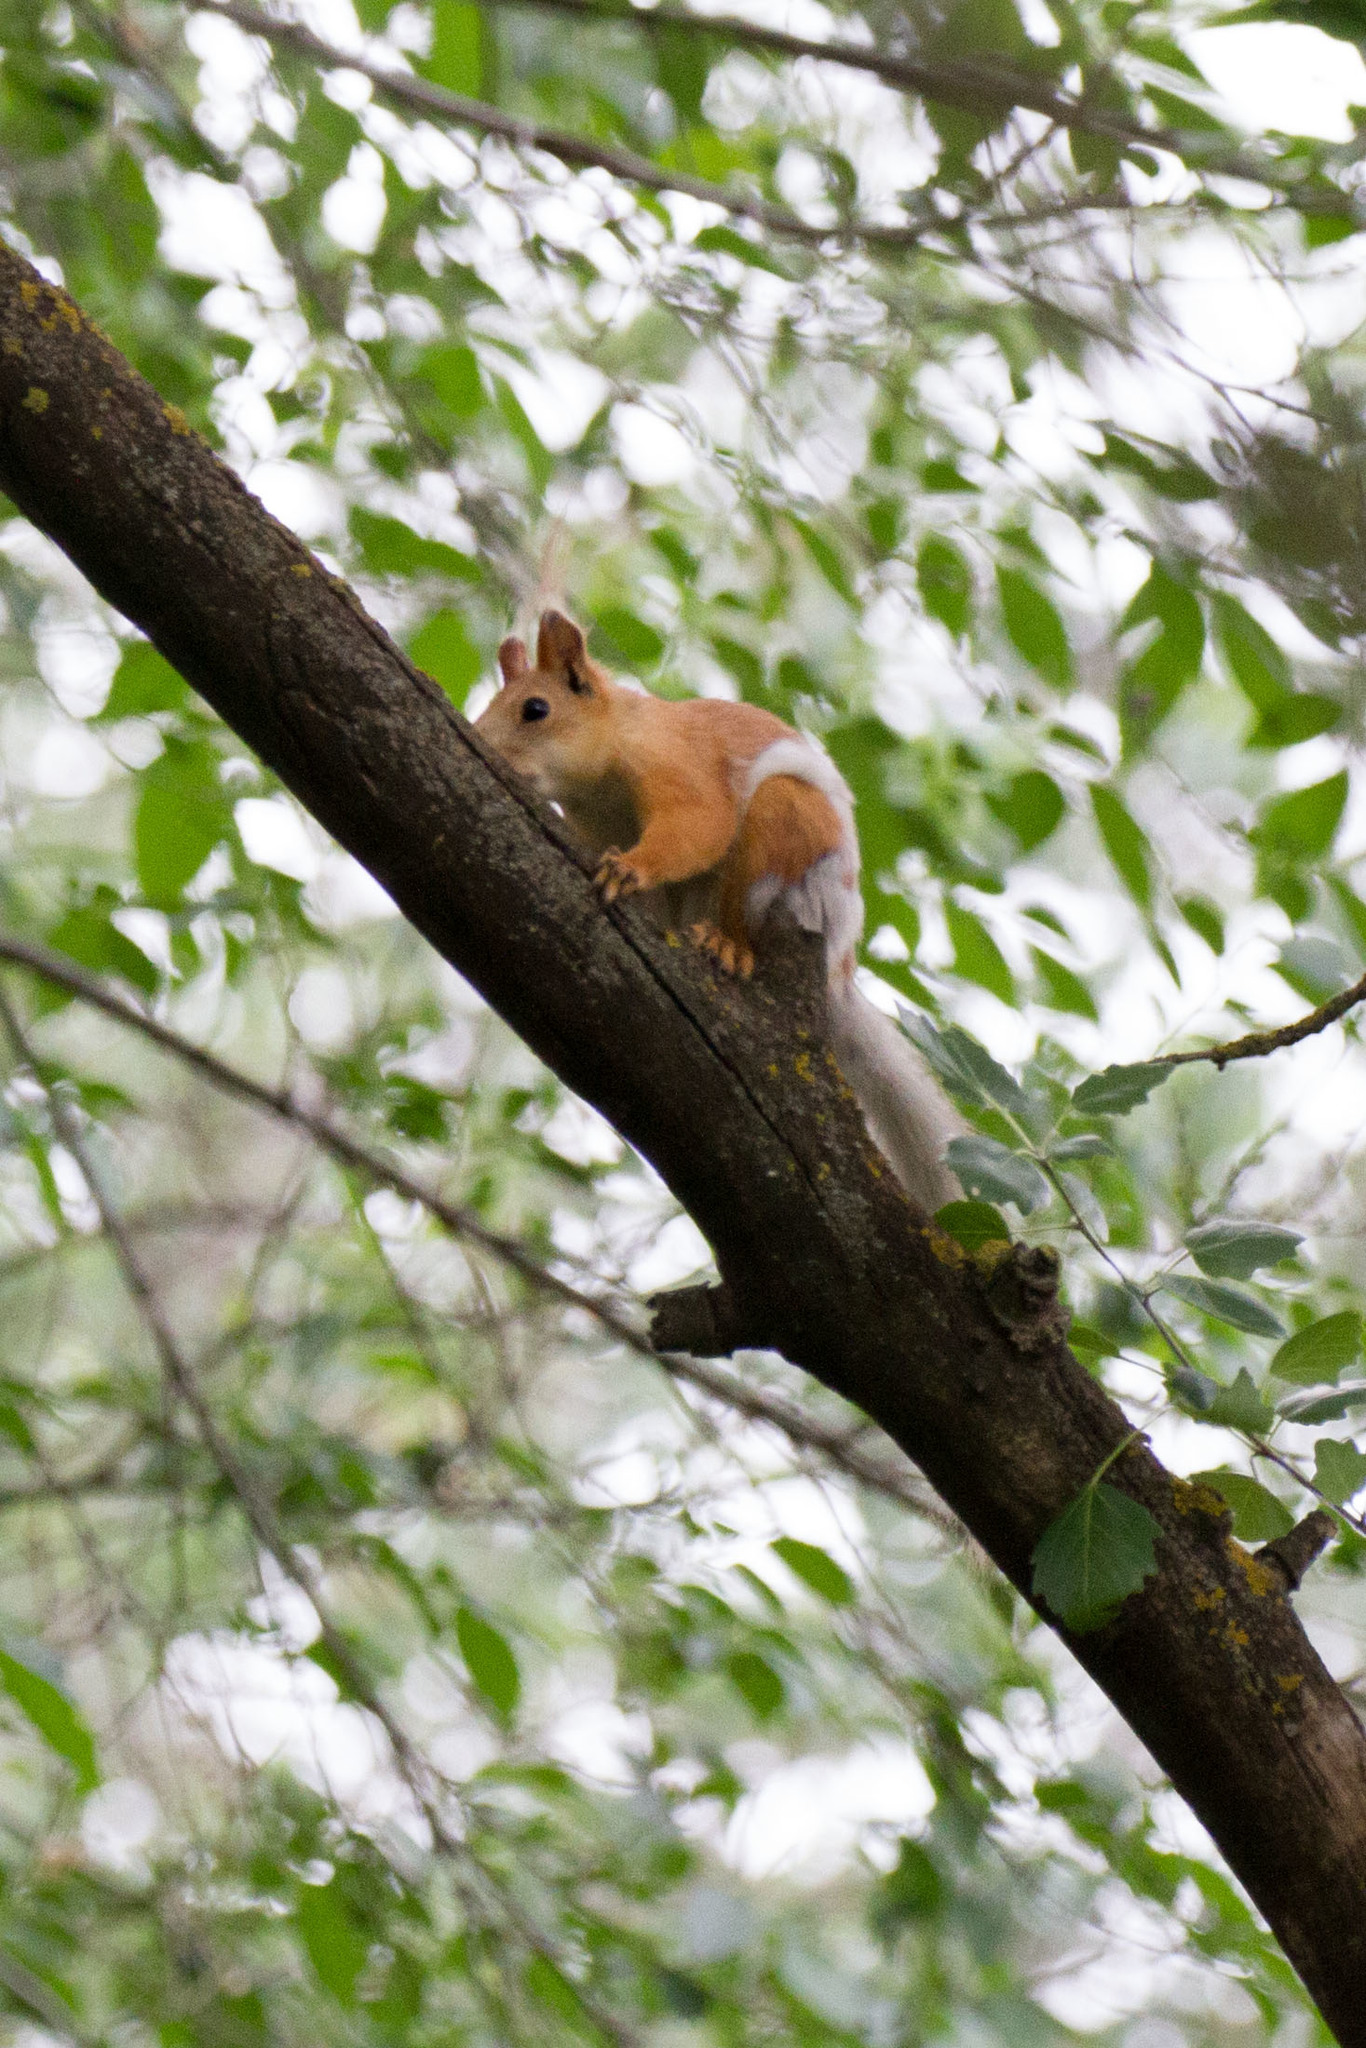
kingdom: Animalia
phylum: Chordata
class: Mammalia
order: Rodentia
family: Sciuridae
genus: Sciurus
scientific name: Sciurus vulgaris
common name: Eurasian red squirrel
